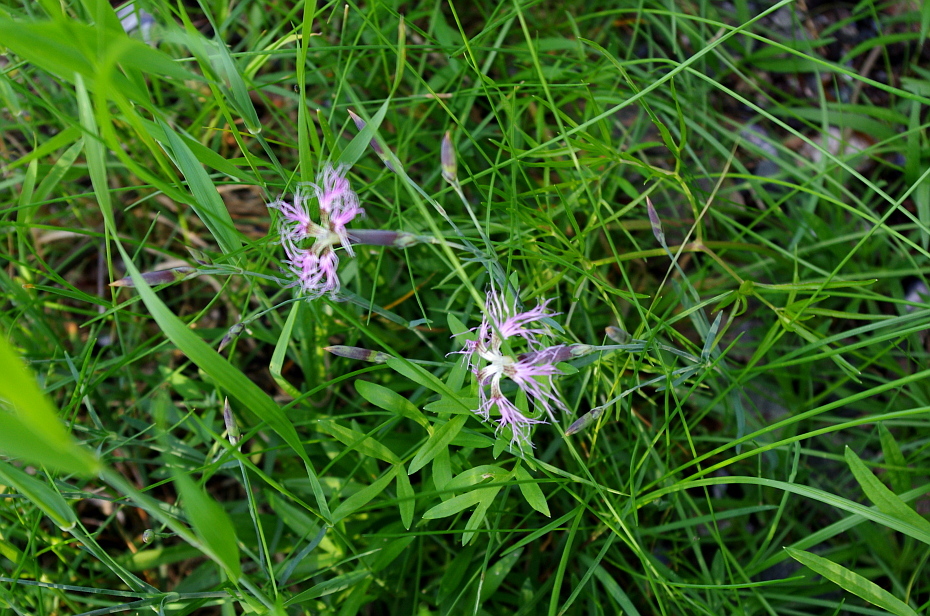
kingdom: Plantae
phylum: Tracheophyta
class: Magnoliopsida
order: Caryophyllales
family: Caryophyllaceae
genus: Dianthus
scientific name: Dianthus superbus
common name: Fringed pink
